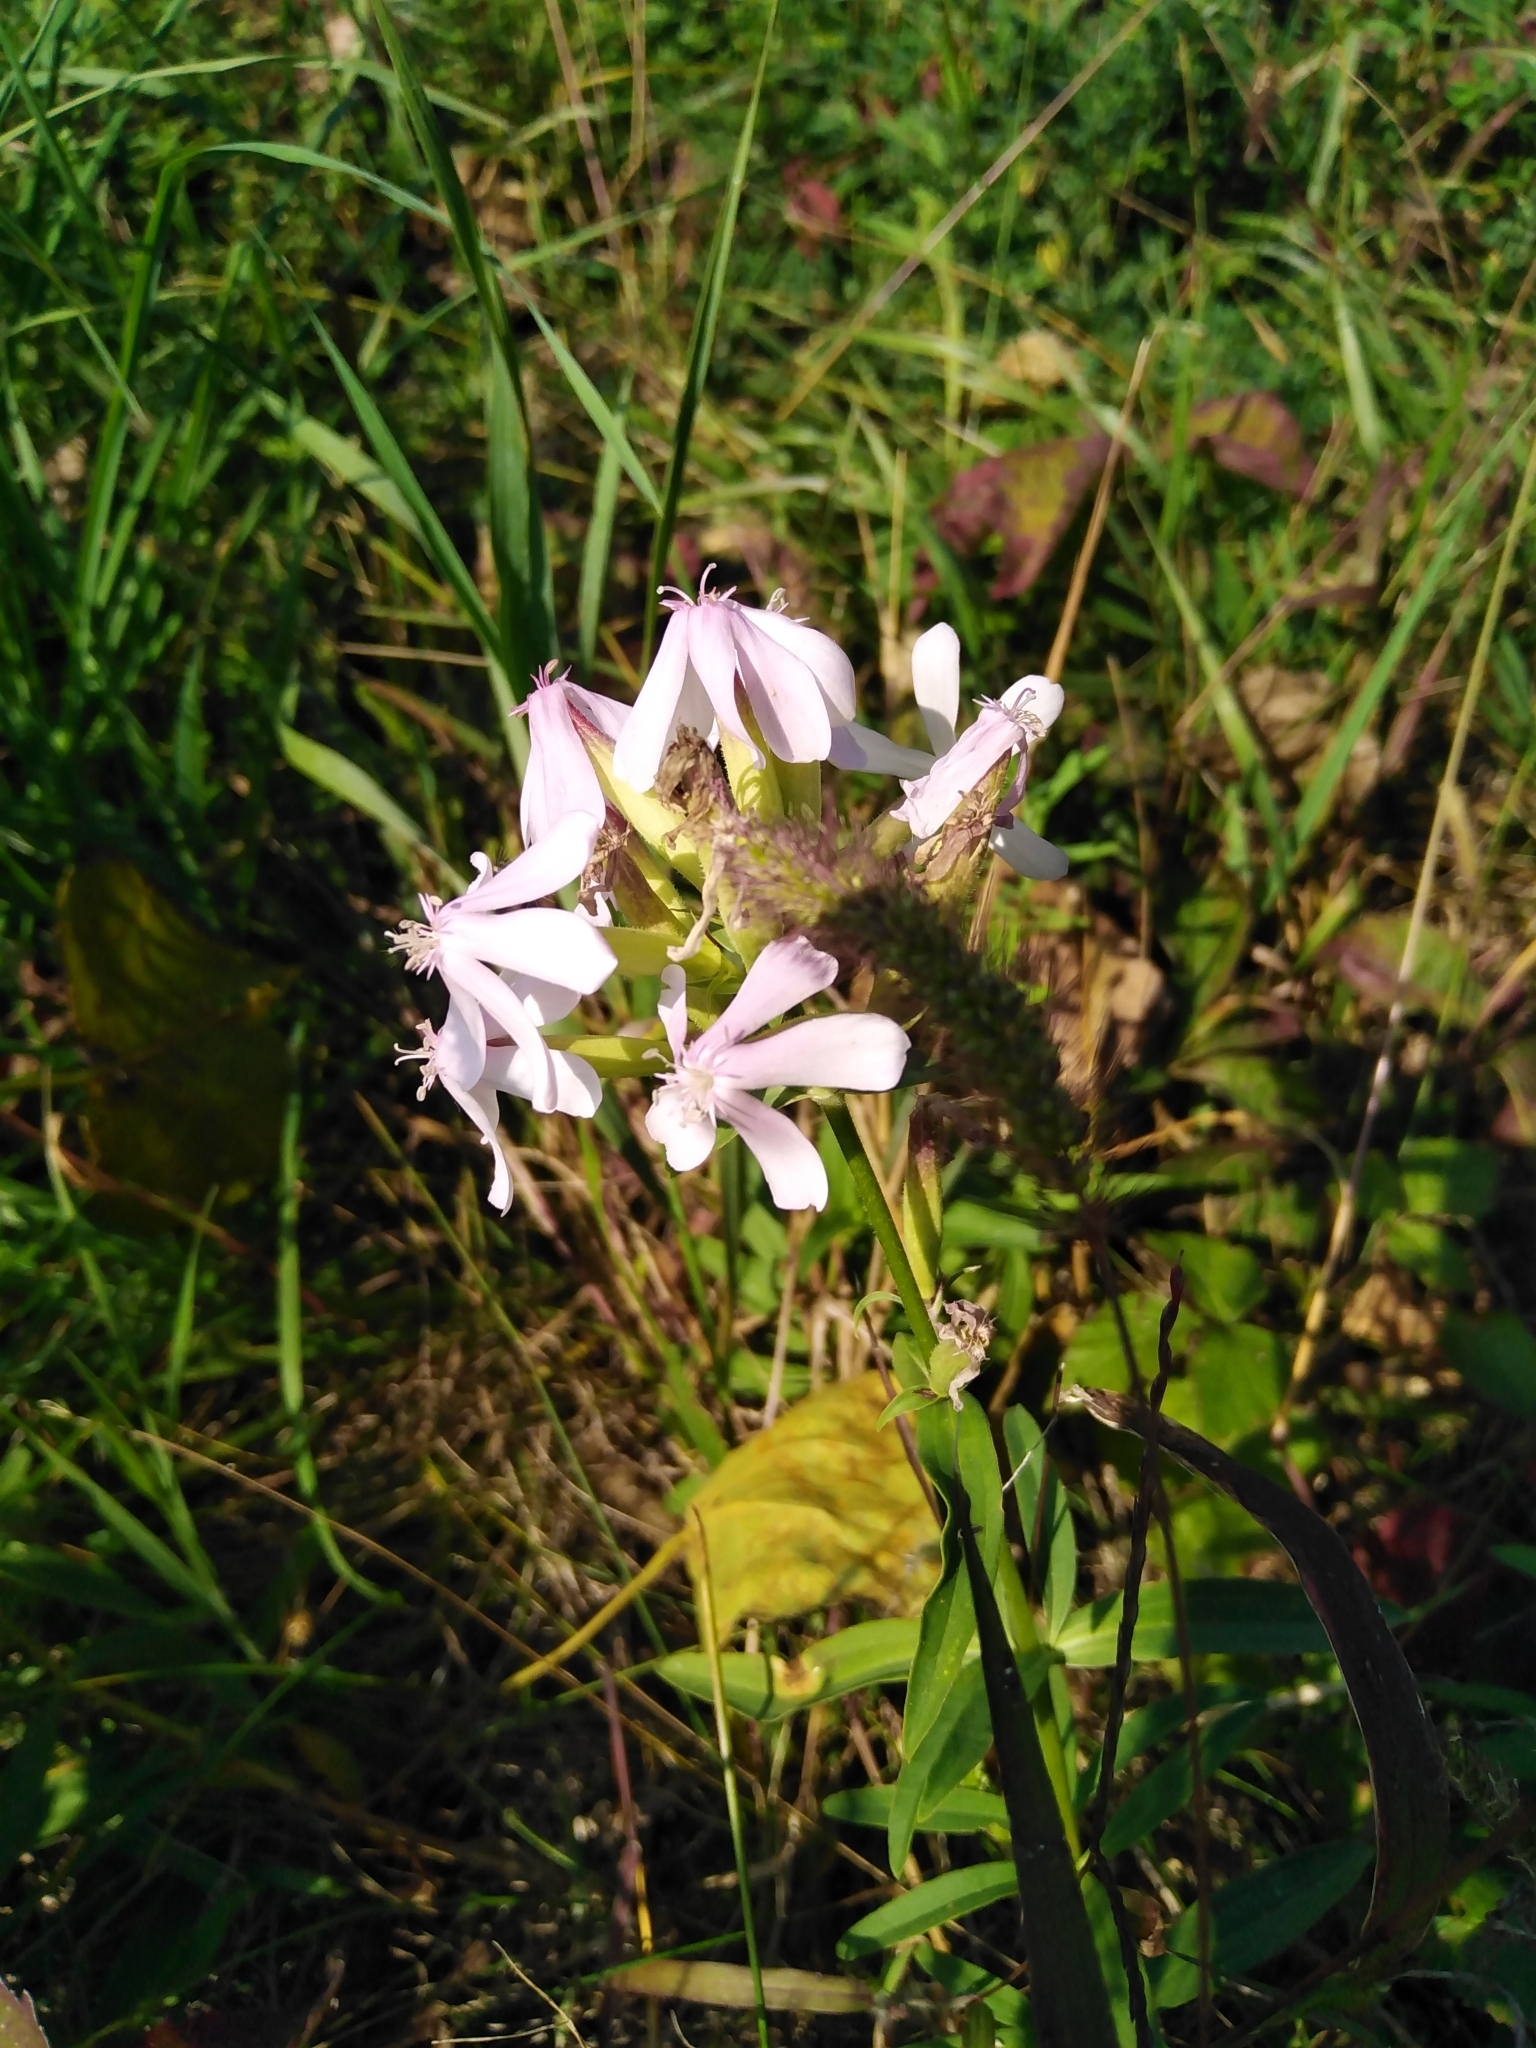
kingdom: Plantae
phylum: Tracheophyta
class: Magnoliopsida
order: Caryophyllales
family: Caryophyllaceae
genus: Saponaria
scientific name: Saponaria officinalis
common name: Soapwort
